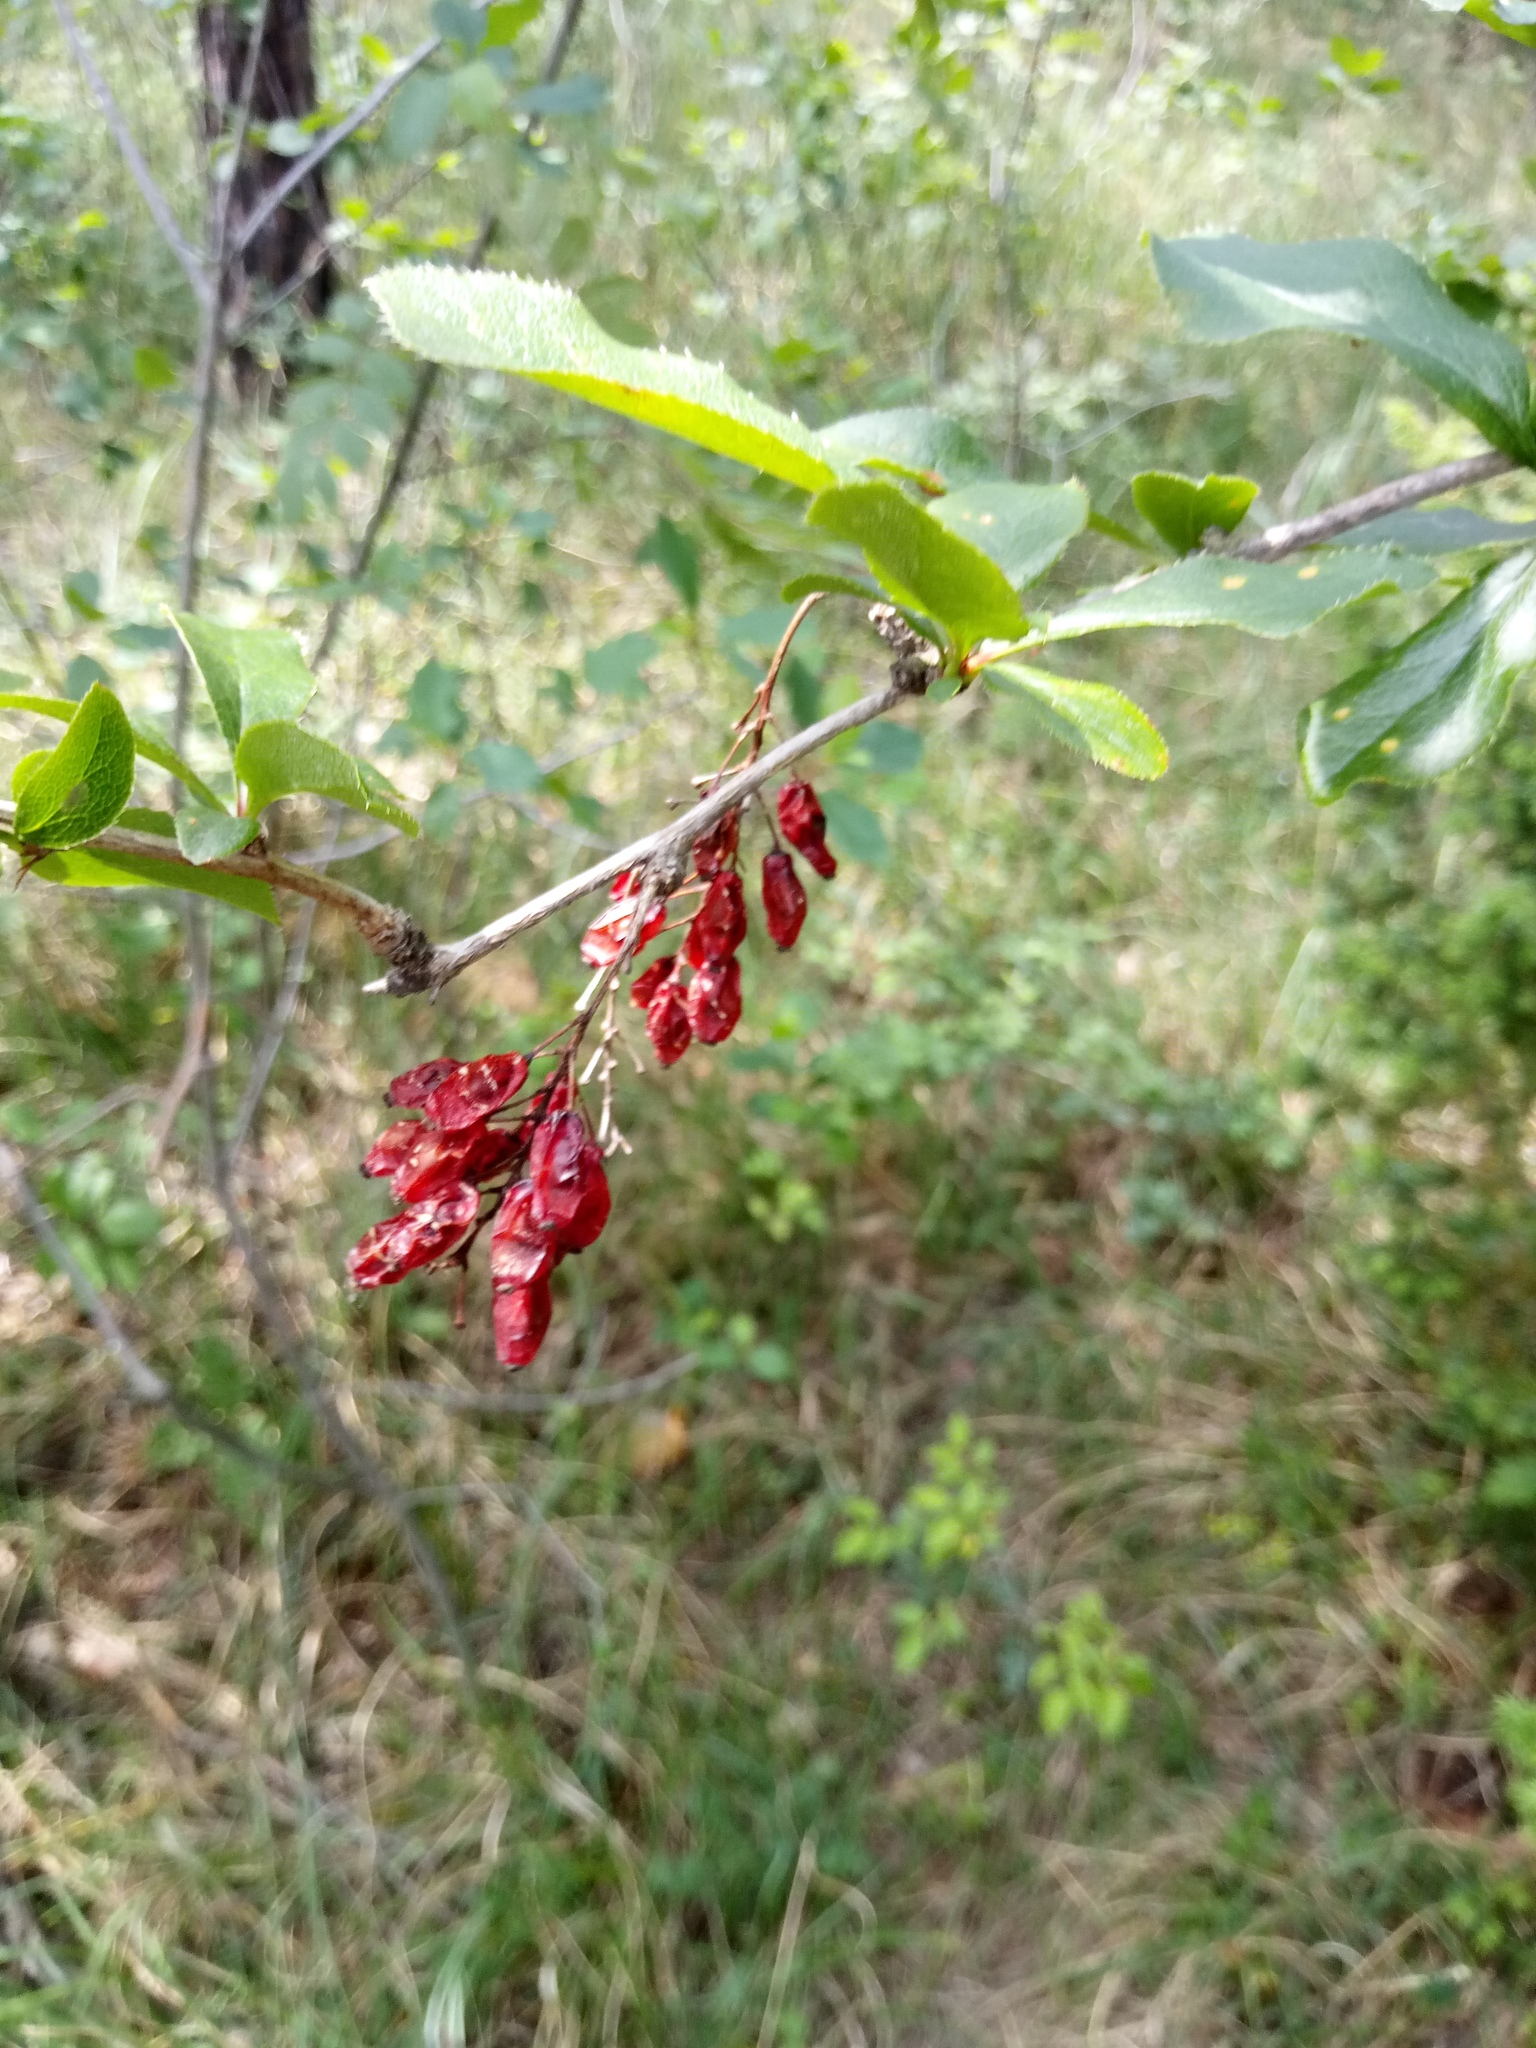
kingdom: Plantae
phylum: Tracheophyta
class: Magnoliopsida
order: Ranunculales
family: Berberidaceae
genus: Berberis
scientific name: Berberis vulgaris
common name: Barberry
